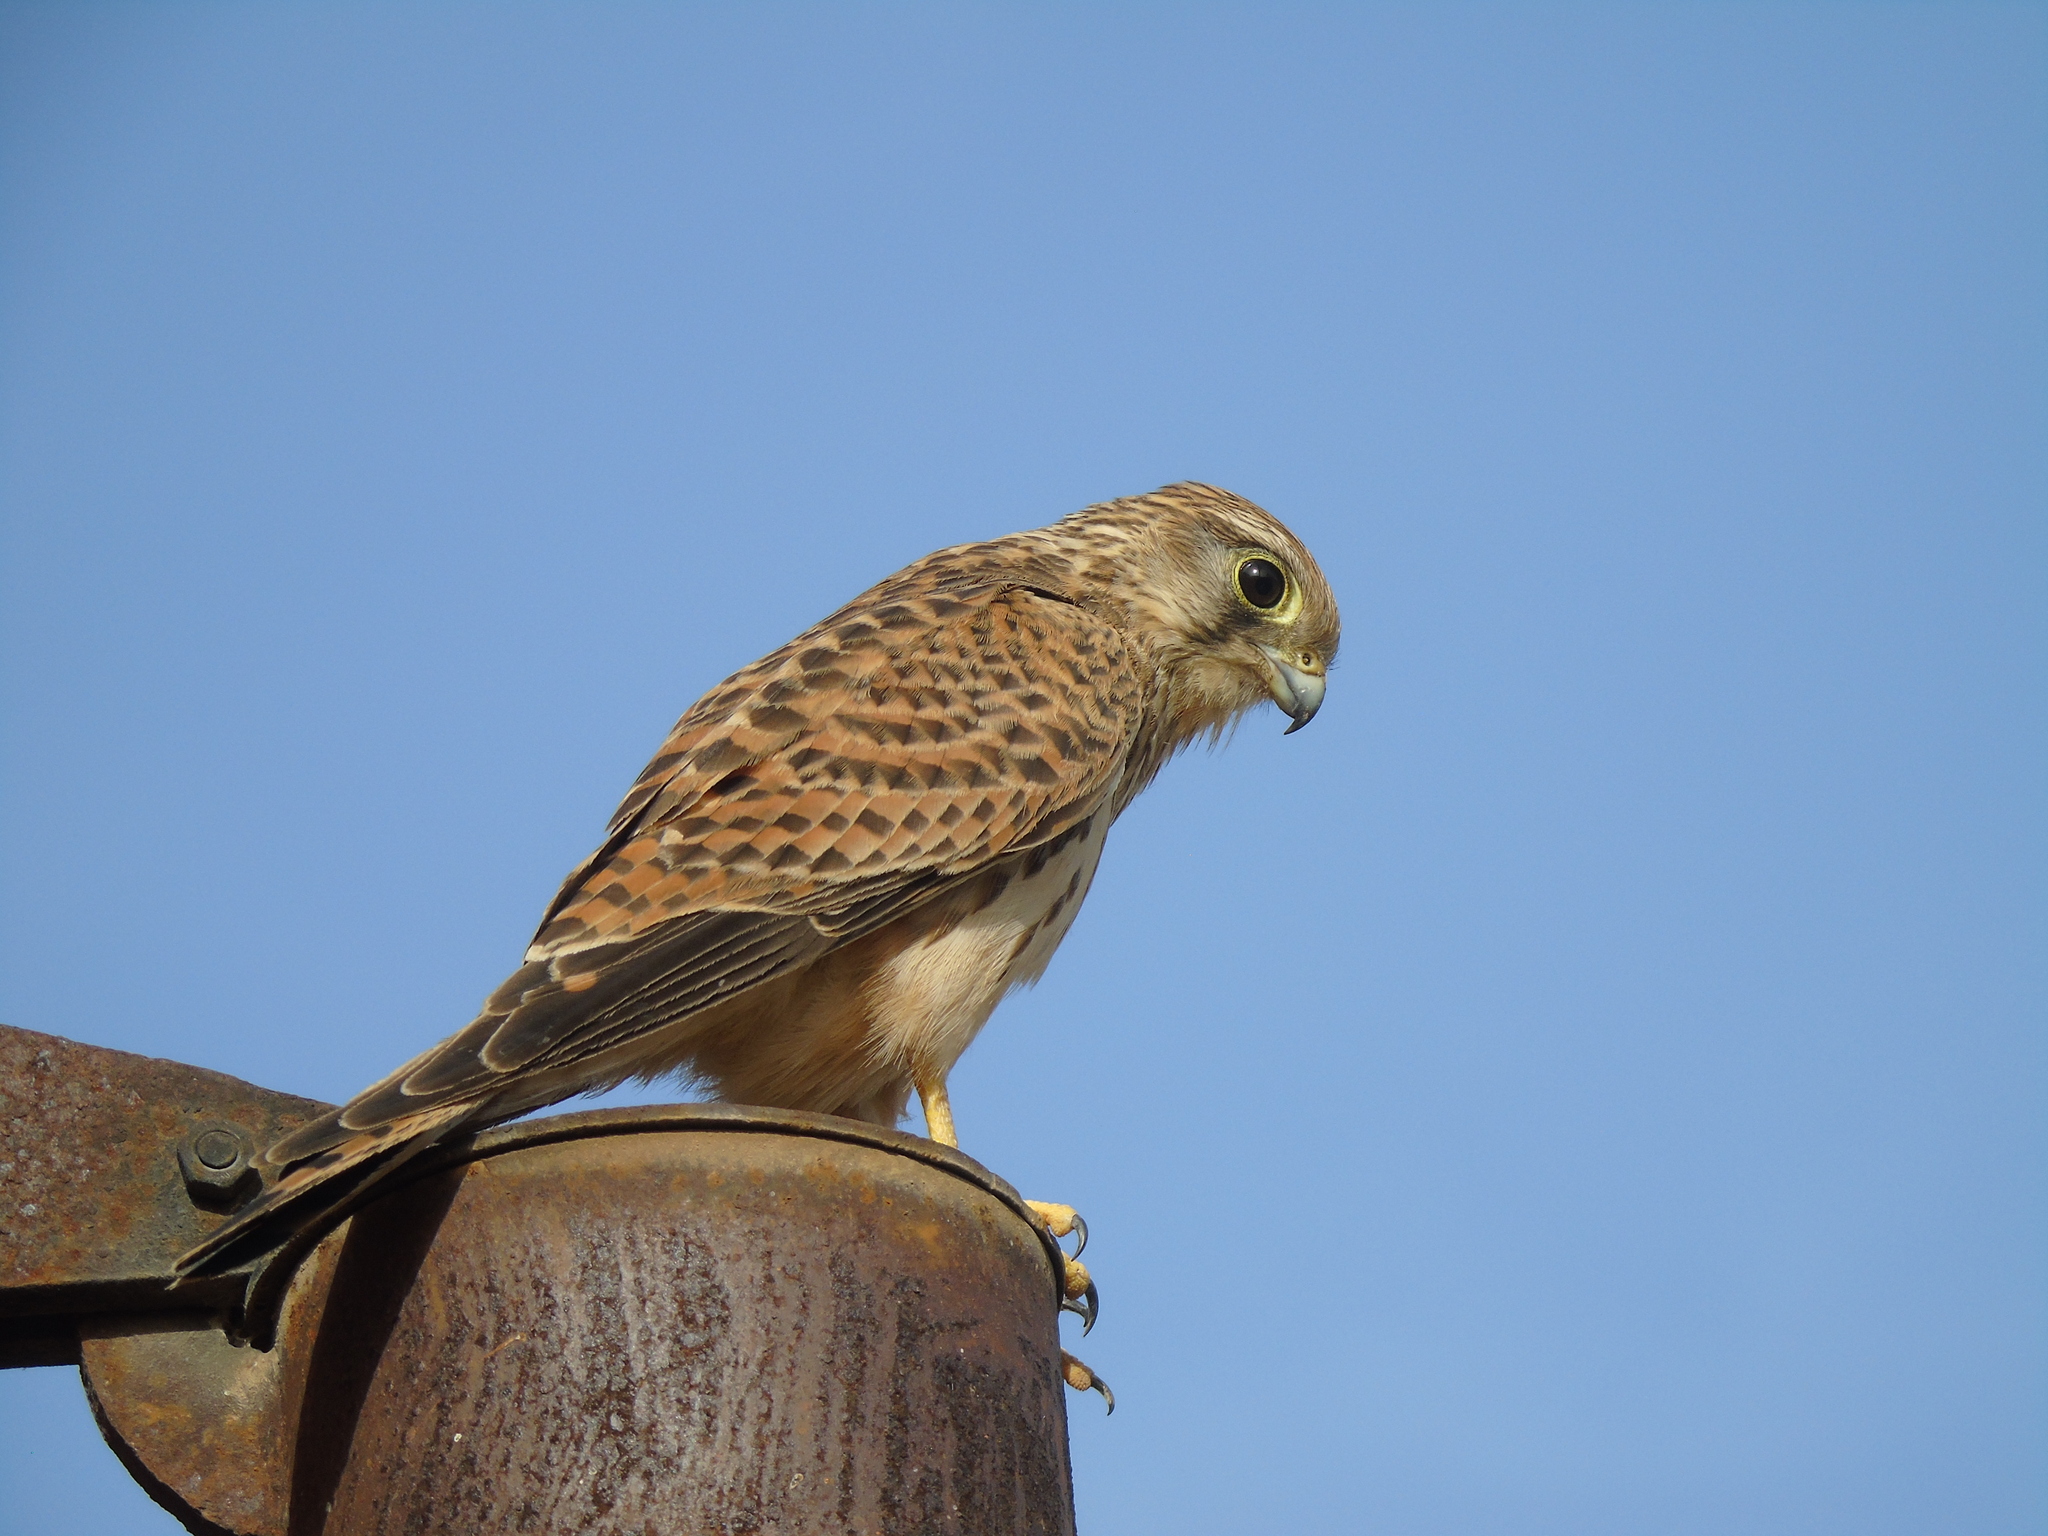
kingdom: Animalia
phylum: Chordata
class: Aves
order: Falconiformes
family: Falconidae
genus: Falco
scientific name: Falco tinnunculus
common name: Common kestrel
